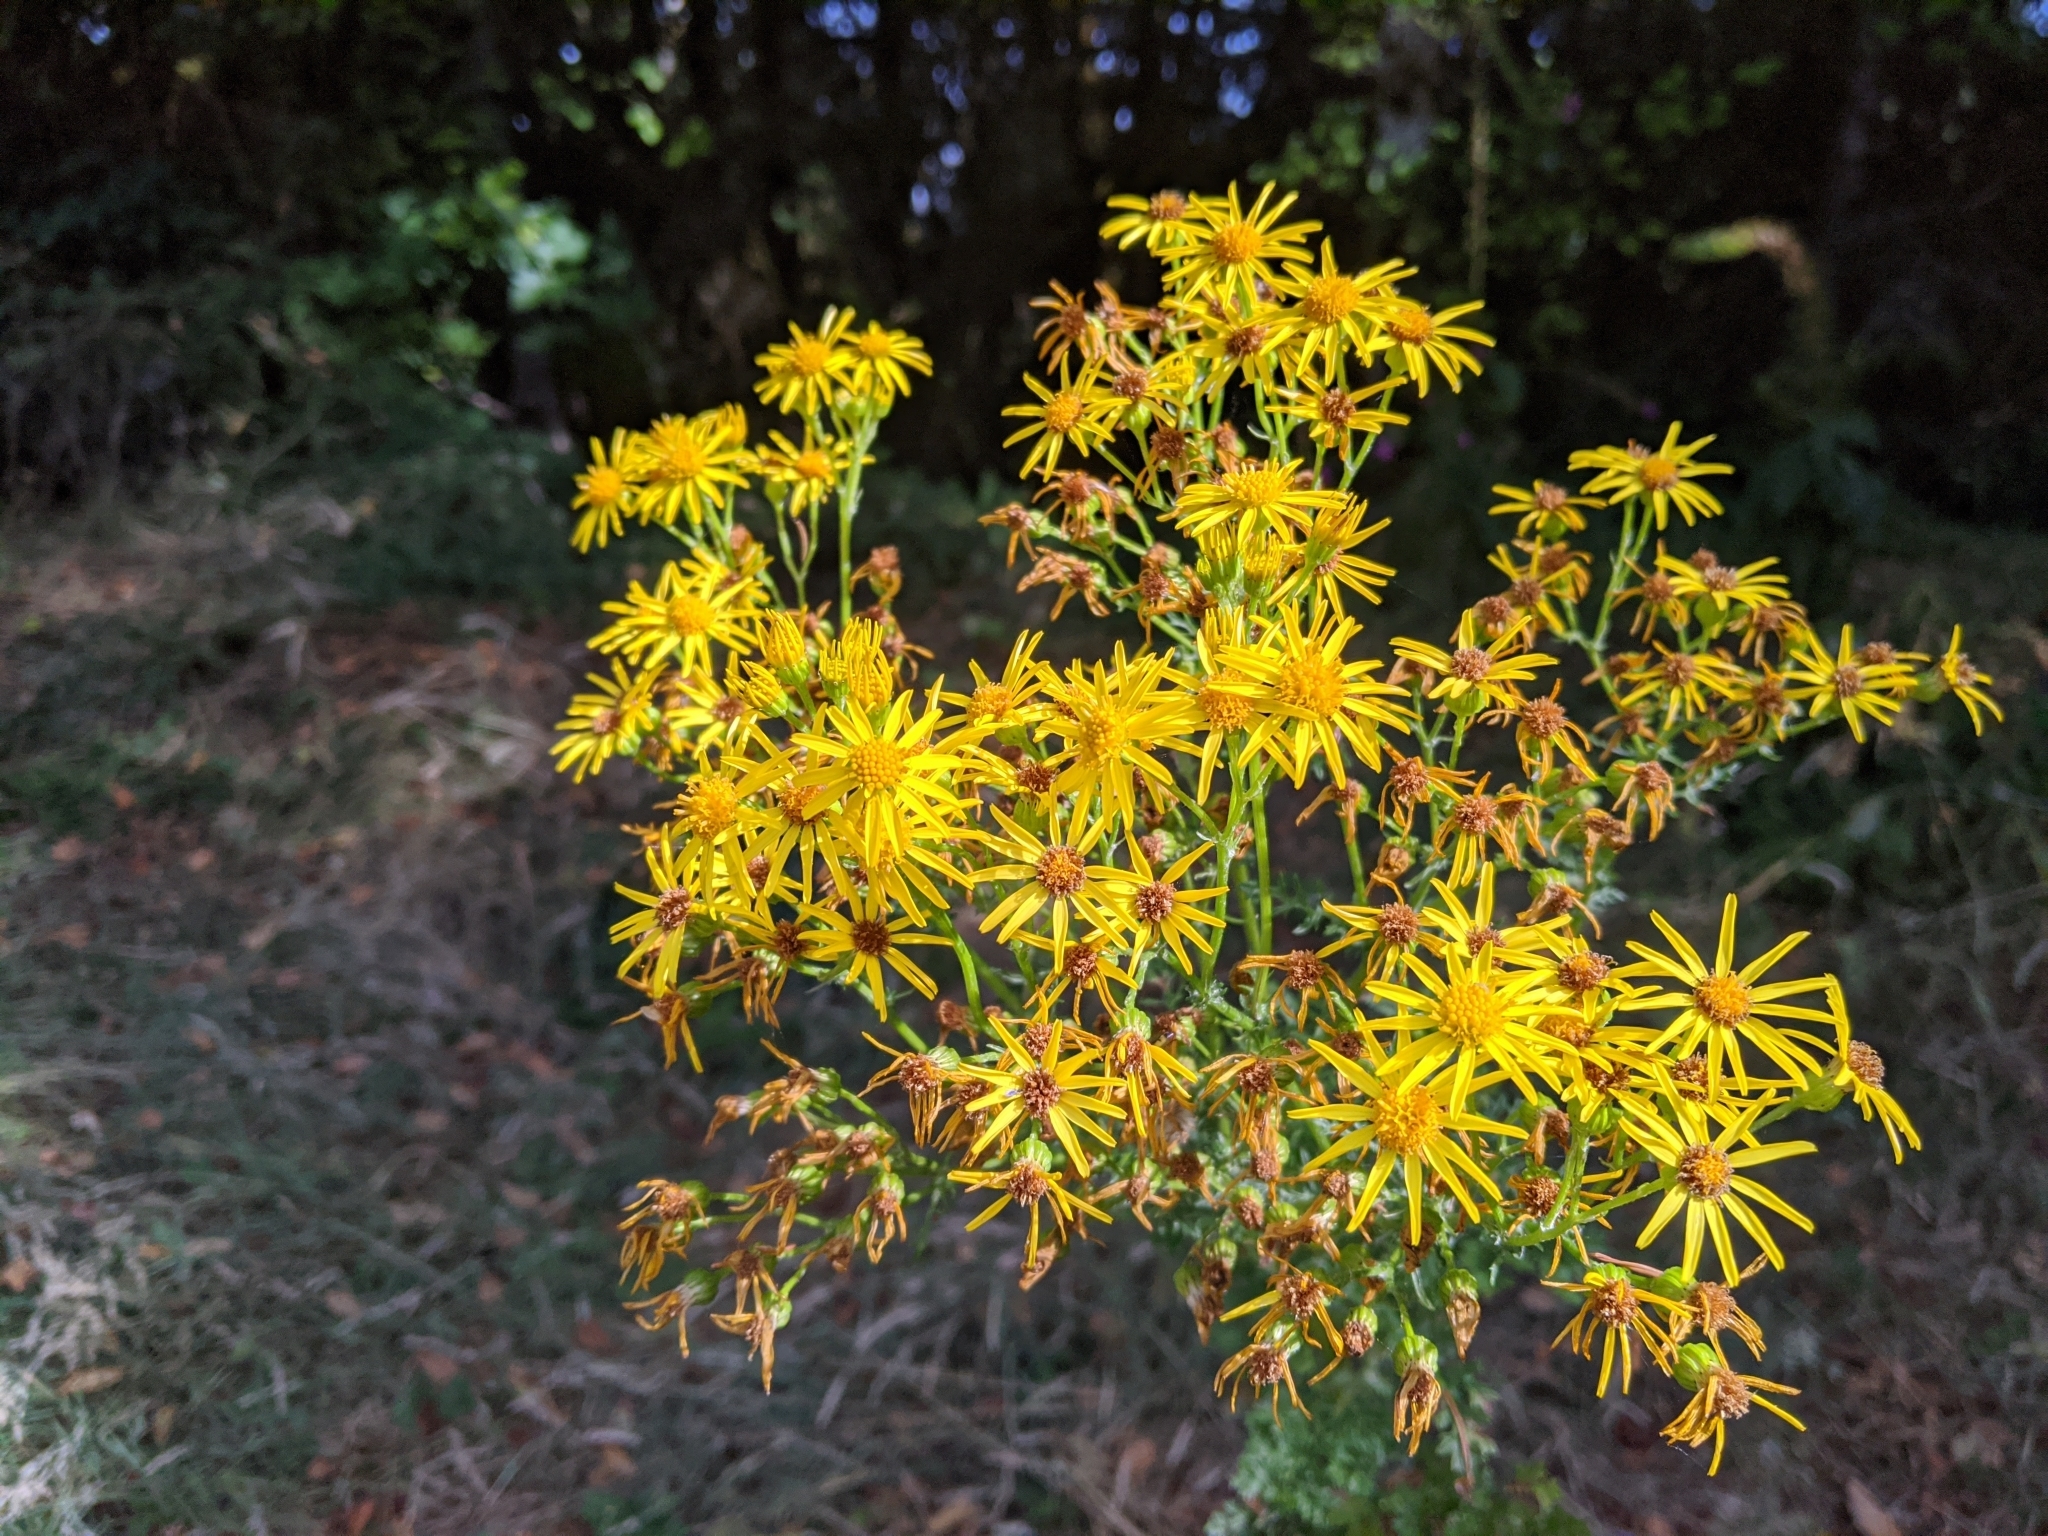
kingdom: Plantae
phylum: Tracheophyta
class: Magnoliopsida
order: Asterales
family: Asteraceae
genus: Jacobaea
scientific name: Jacobaea vulgaris
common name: Stinking willie
